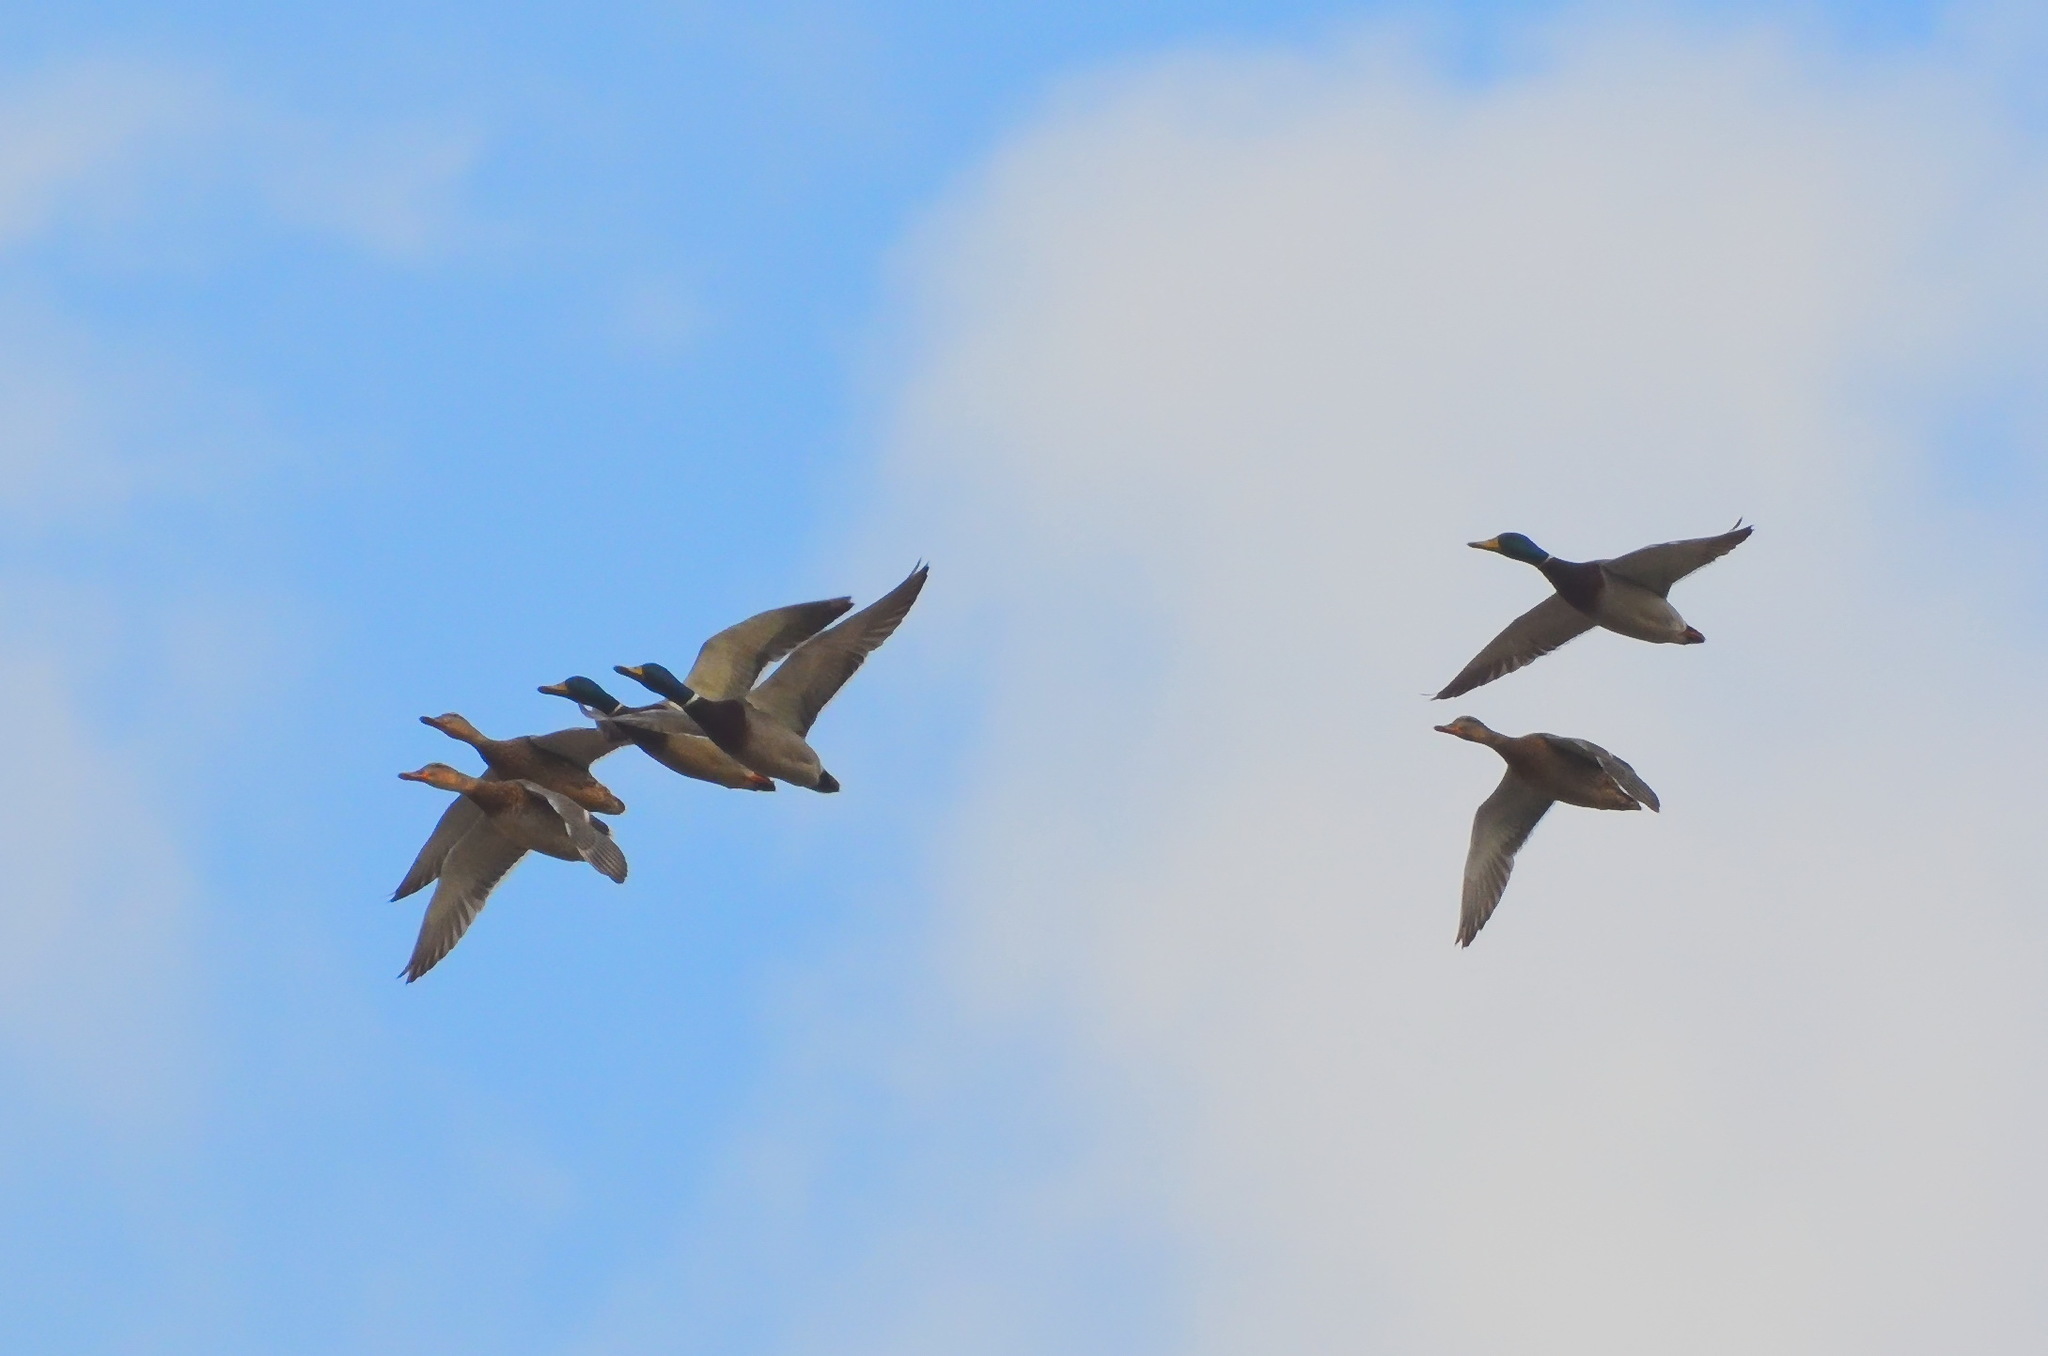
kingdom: Animalia
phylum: Chordata
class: Aves
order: Anseriformes
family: Anatidae
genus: Anas
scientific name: Anas platyrhynchos
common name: Mallard
